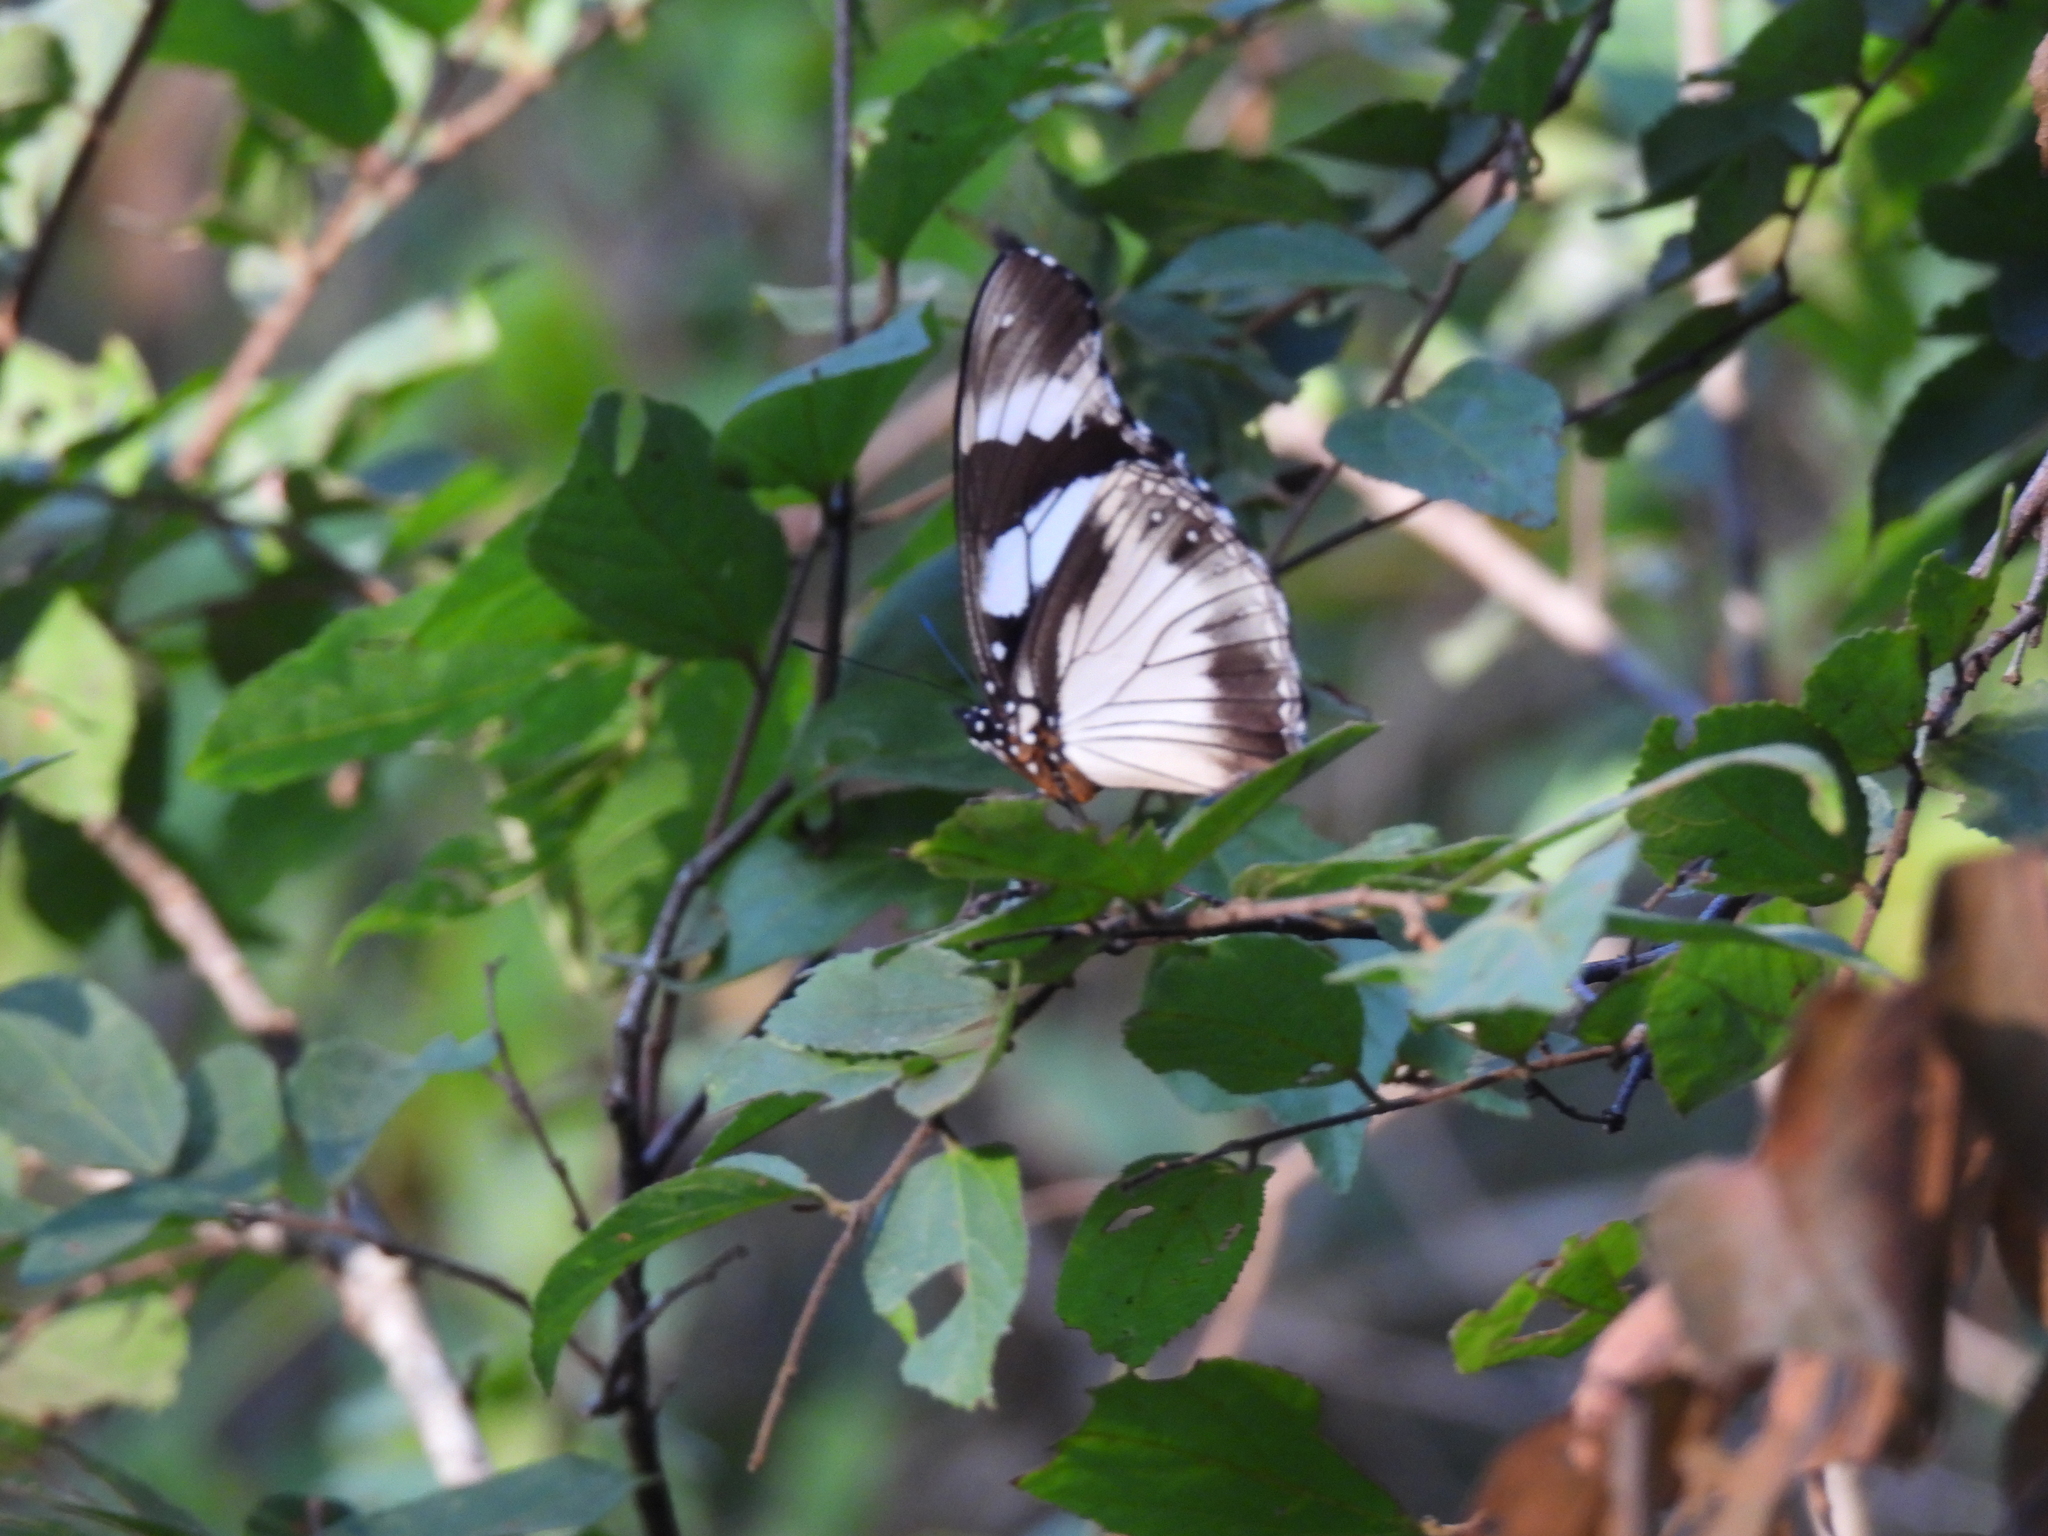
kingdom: Animalia
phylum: Arthropoda
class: Insecta
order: Lepidoptera
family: Nymphalidae
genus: Hypolimnas
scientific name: Hypolimnas deceptor
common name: Deceptive diadem
